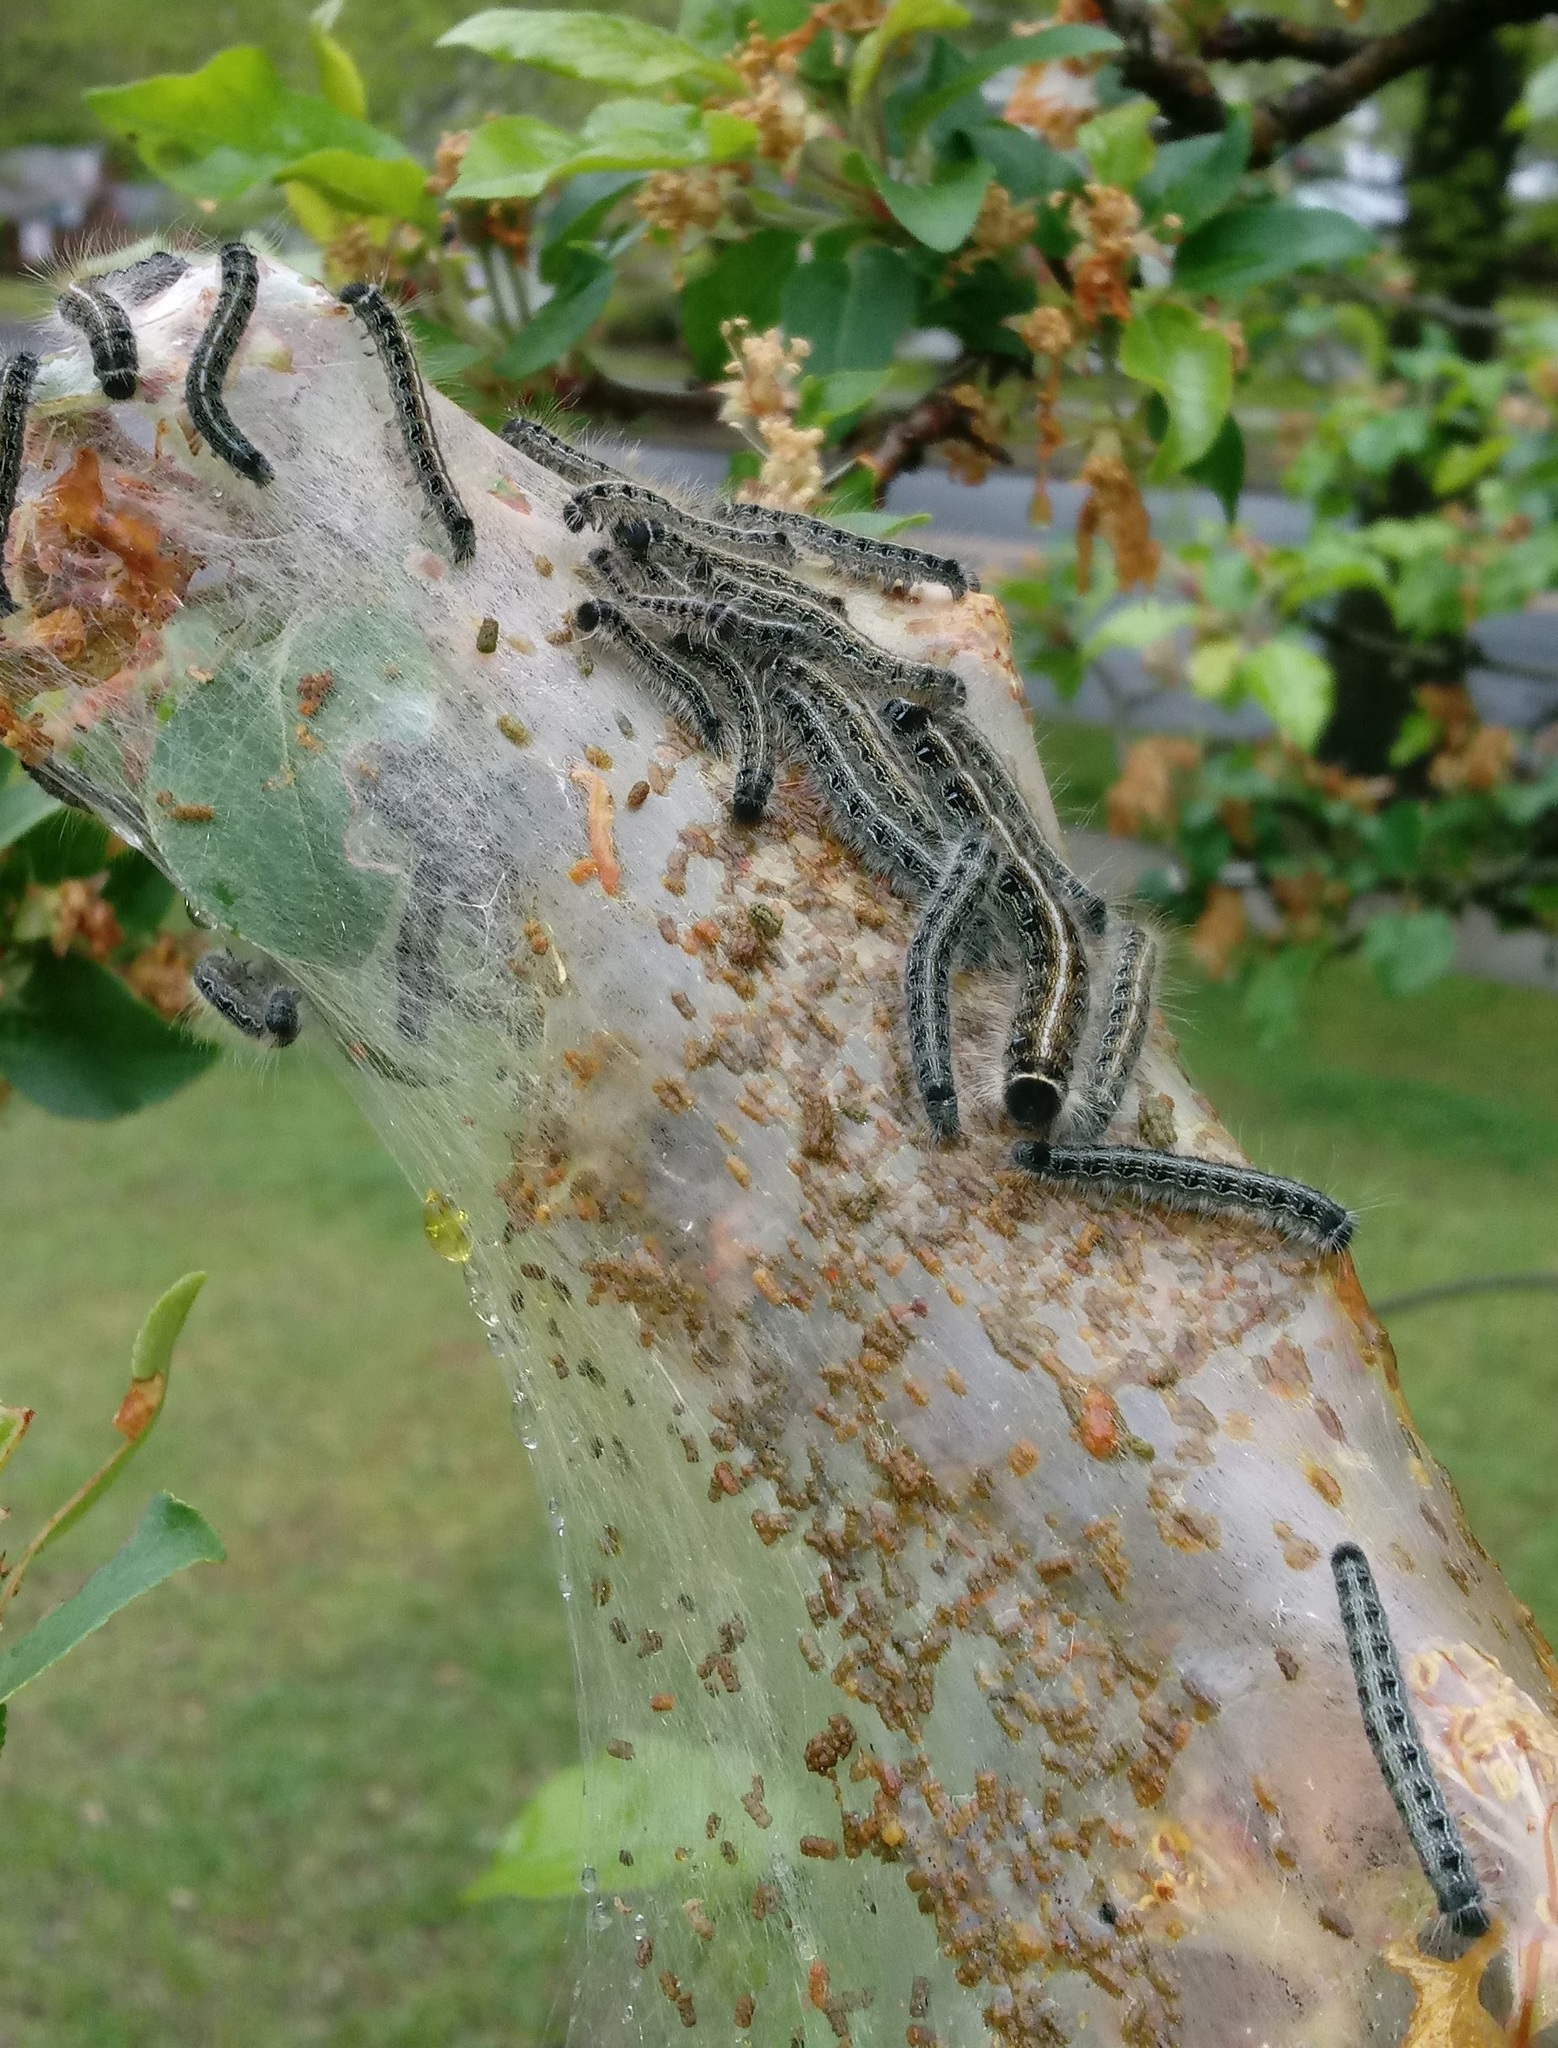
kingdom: Animalia
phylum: Arthropoda
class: Insecta
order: Lepidoptera
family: Lasiocampidae
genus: Malacosoma
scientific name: Malacosoma americana
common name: Eastern tent caterpillar moth
